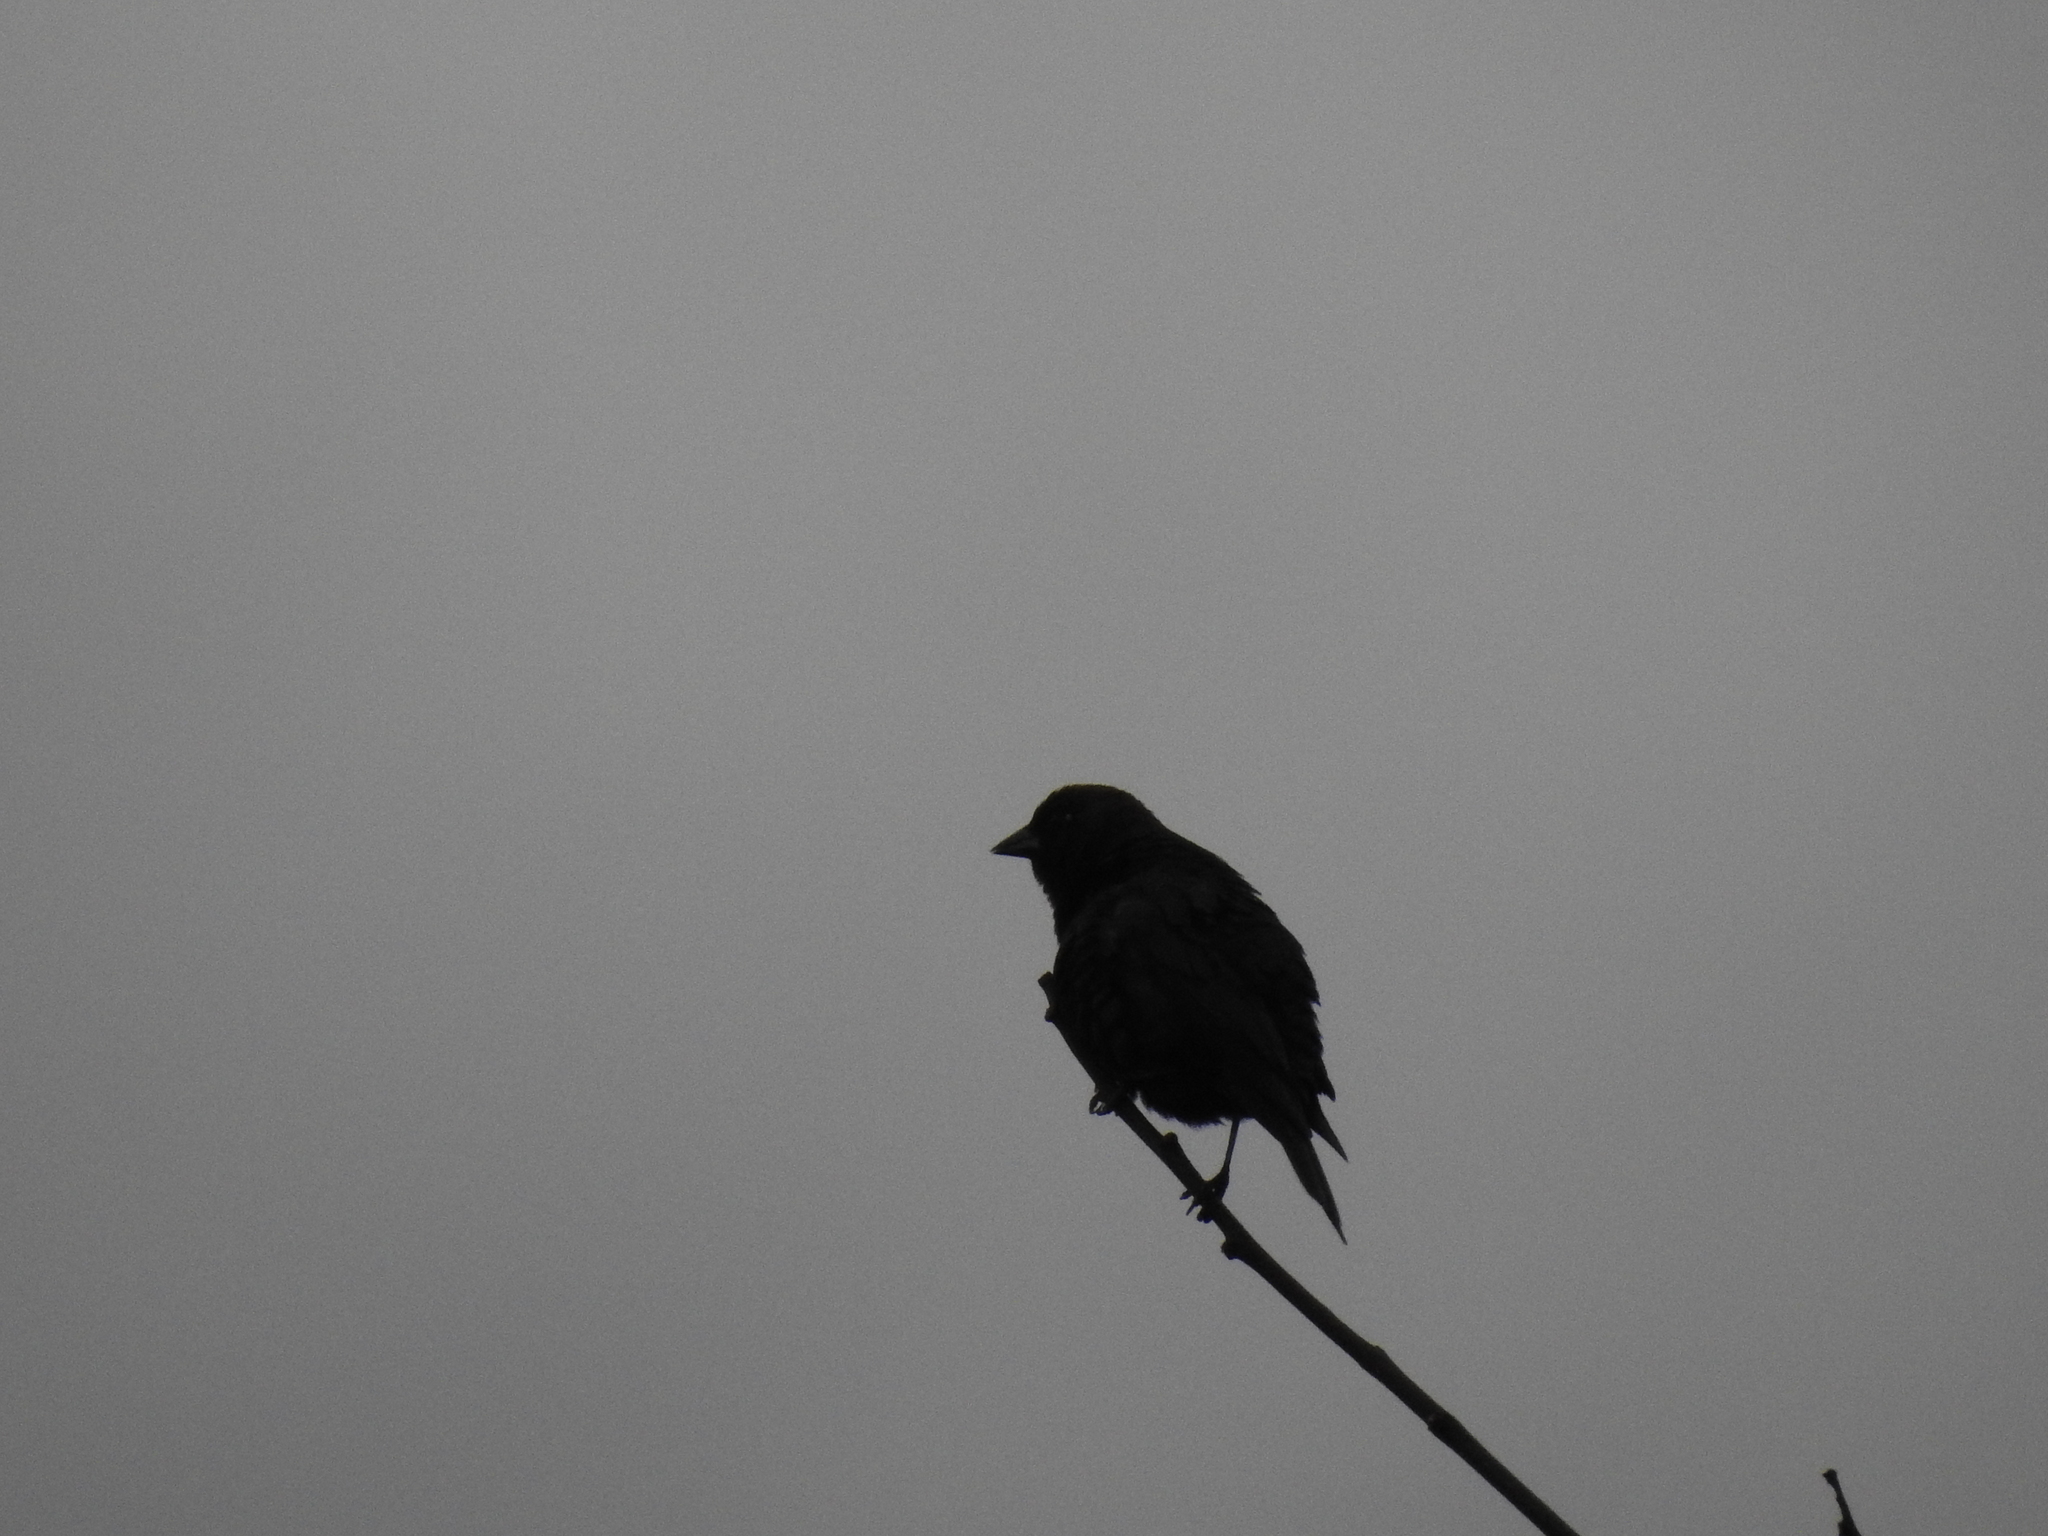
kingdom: Animalia
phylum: Chordata
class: Aves
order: Passeriformes
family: Icteridae
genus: Molothrus
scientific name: Molothrus ater
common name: Brown-headed cowbird
